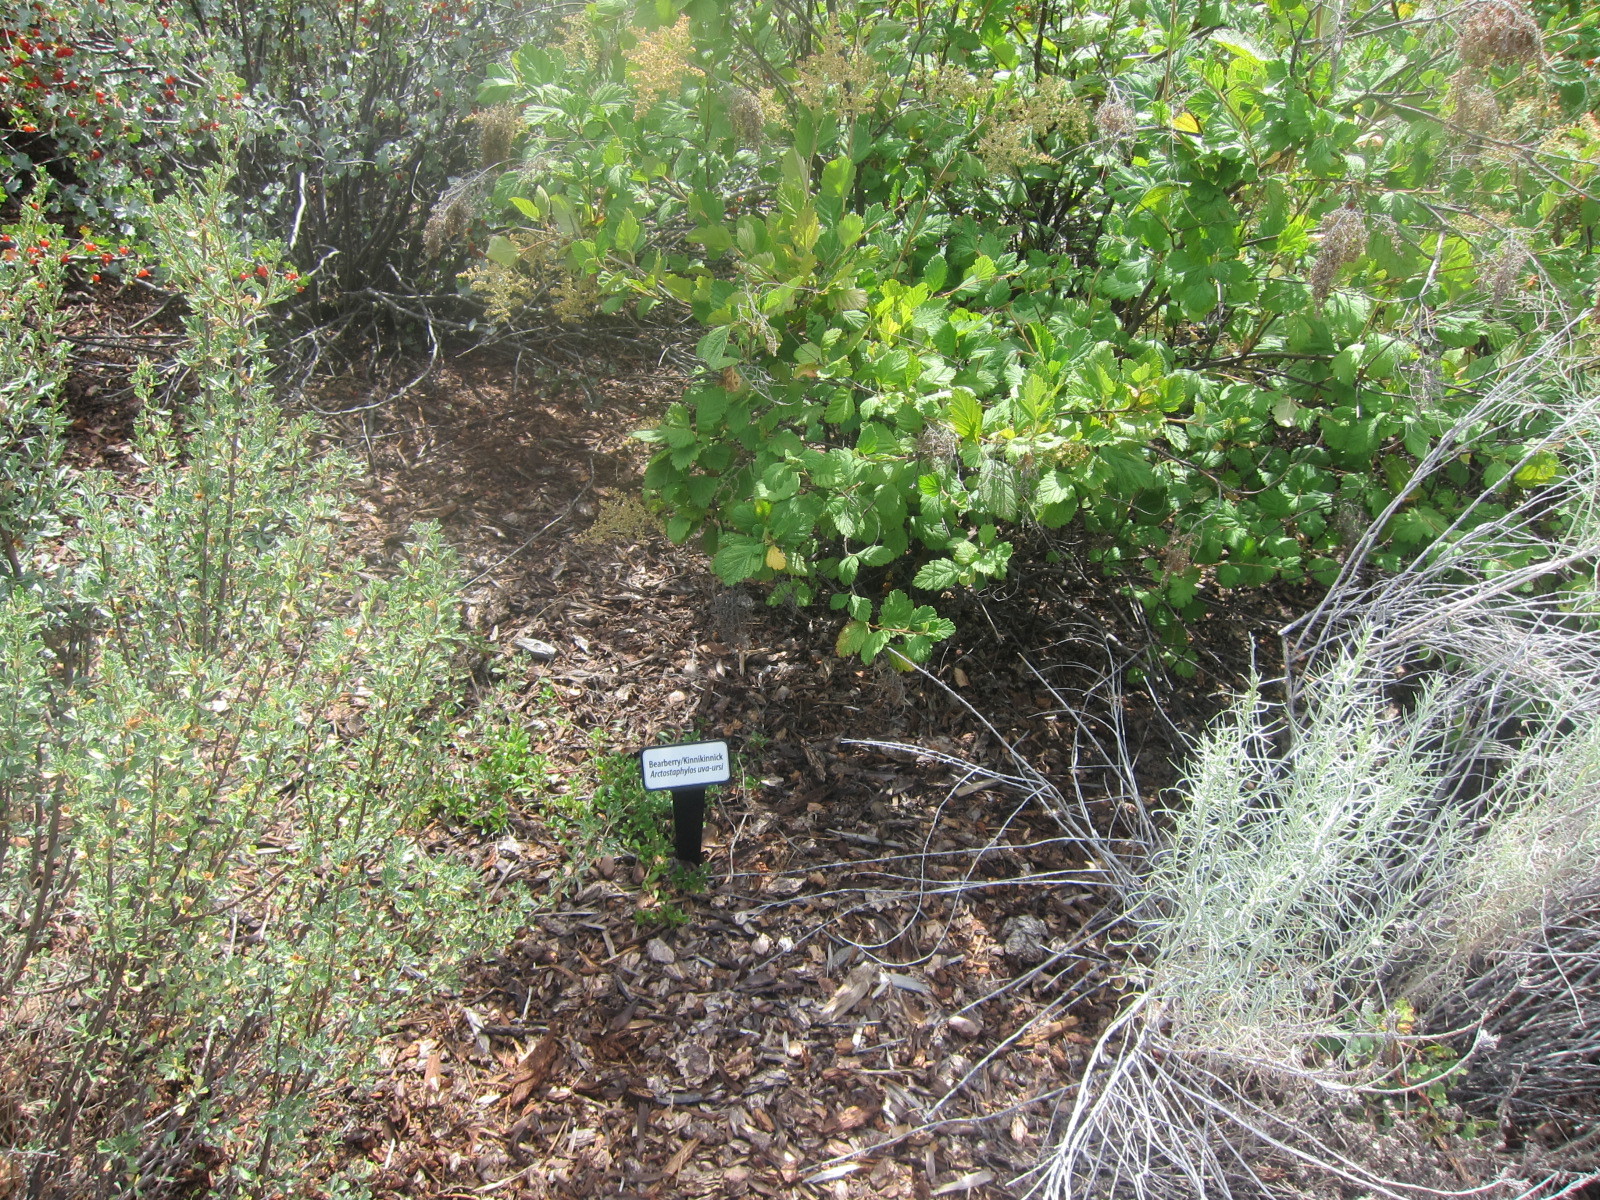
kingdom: Plantae
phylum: Tracheophyta
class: Magnoliopsida
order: Ericales
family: Ericaceae
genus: Arctostaphylos
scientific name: Arctostaphylos uva-ursi
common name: Bearberry
